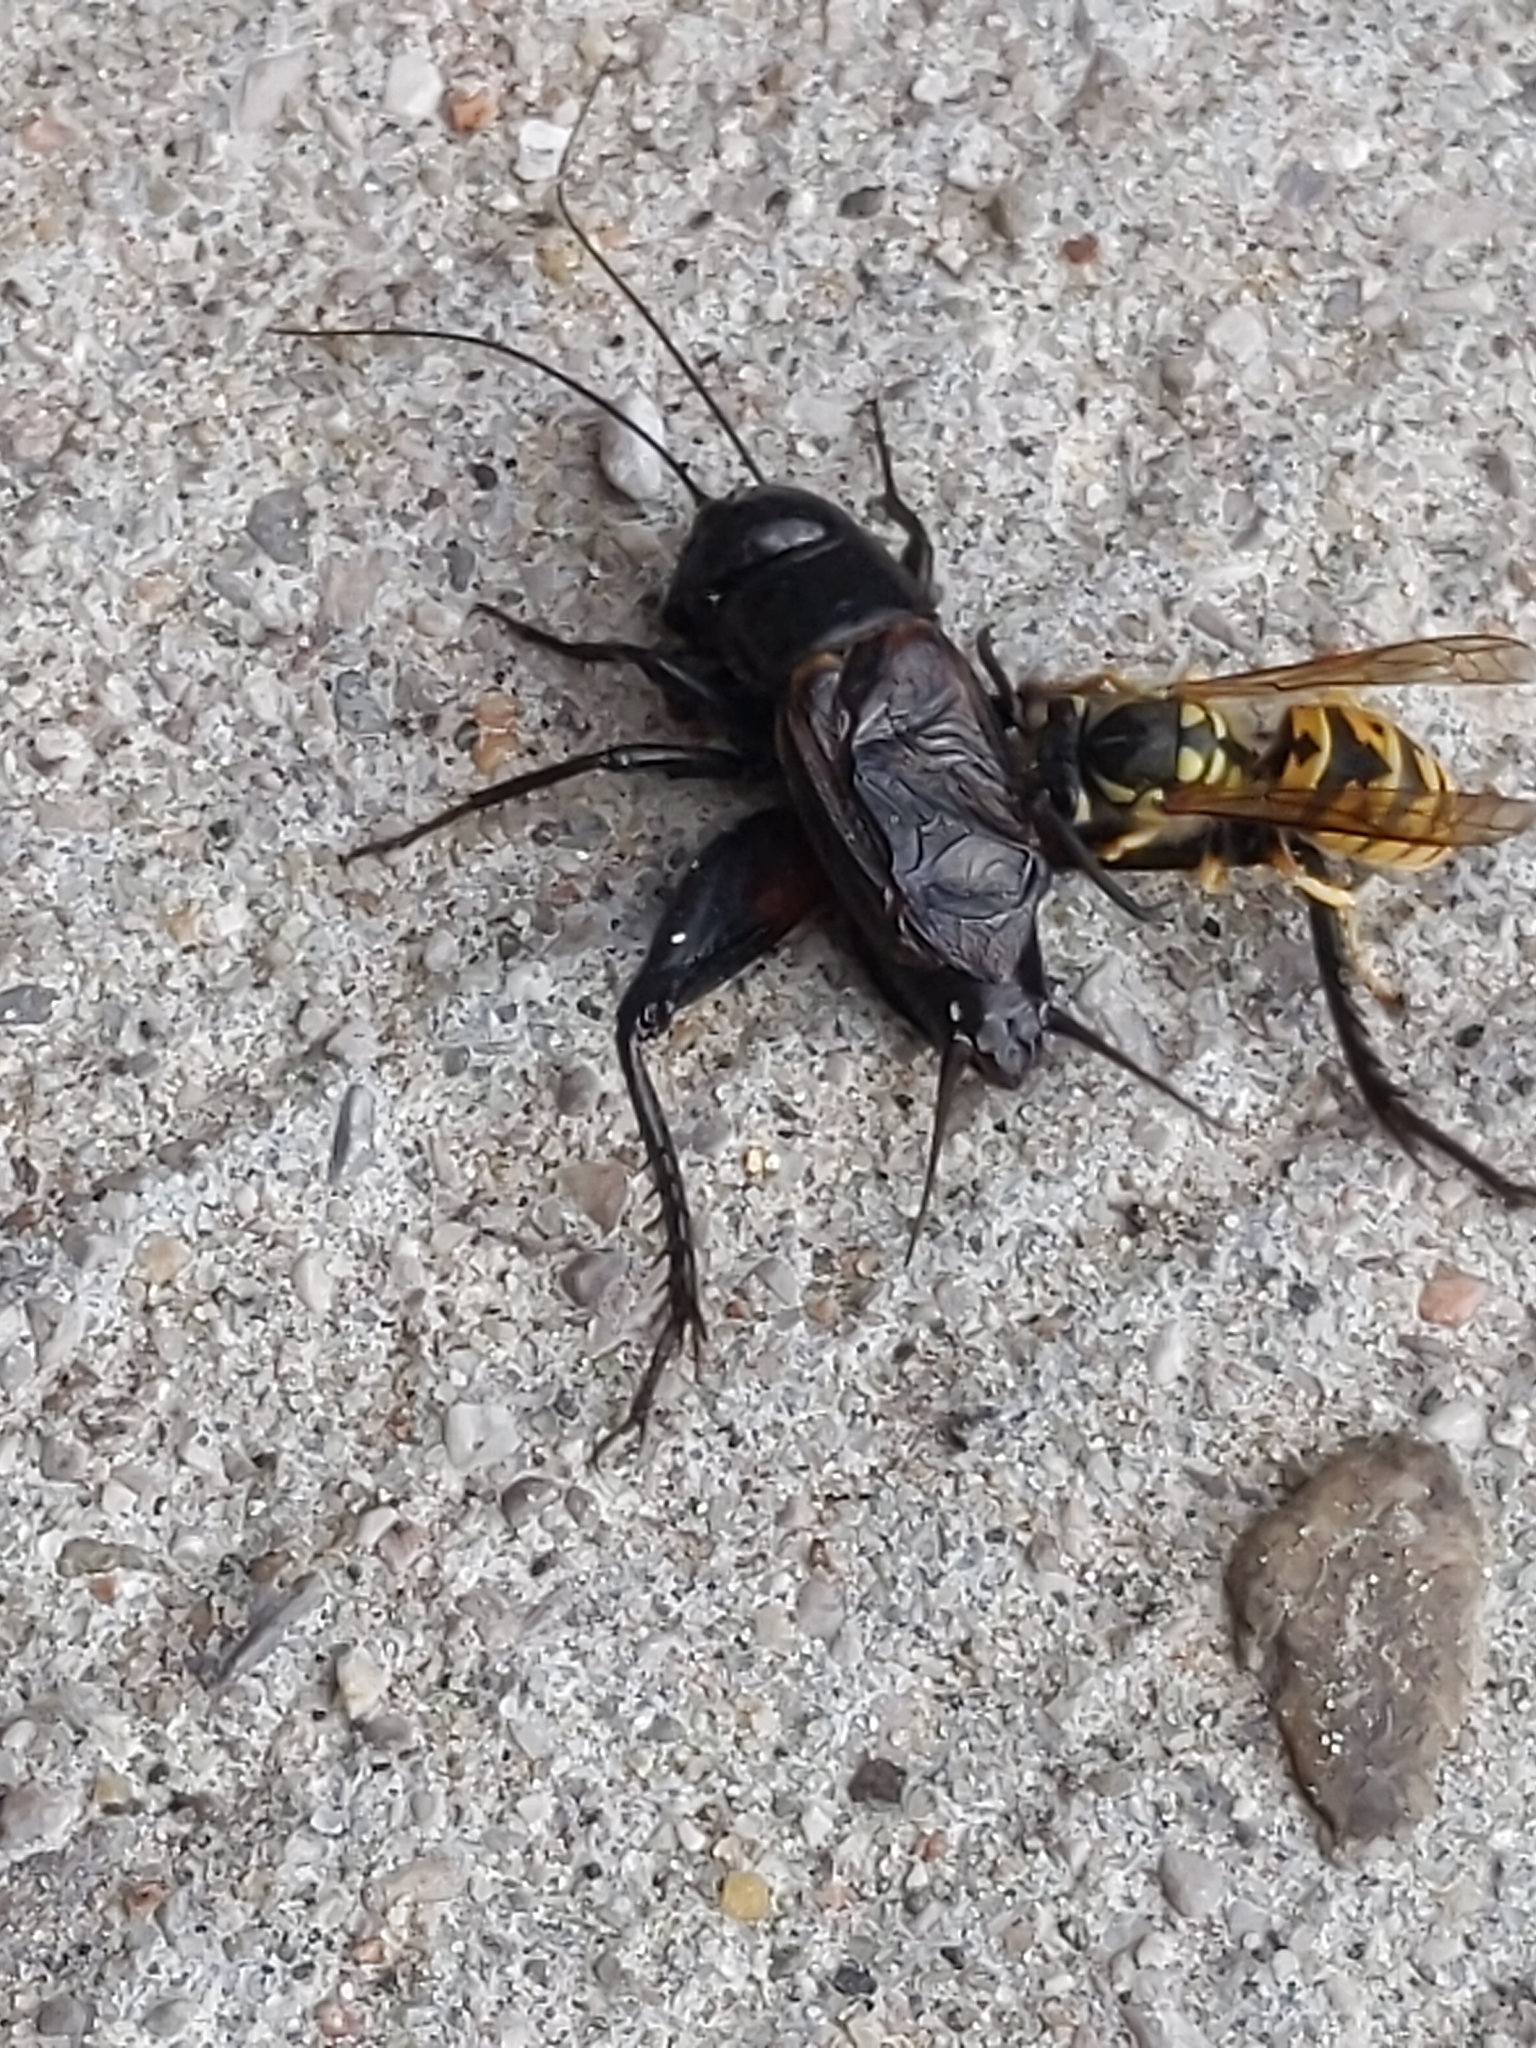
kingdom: Animalia
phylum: Arthropoda
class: Insecta
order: Hymenoptera
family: Vespidae
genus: Vespula
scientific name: Vespula germanica
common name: German wasp
